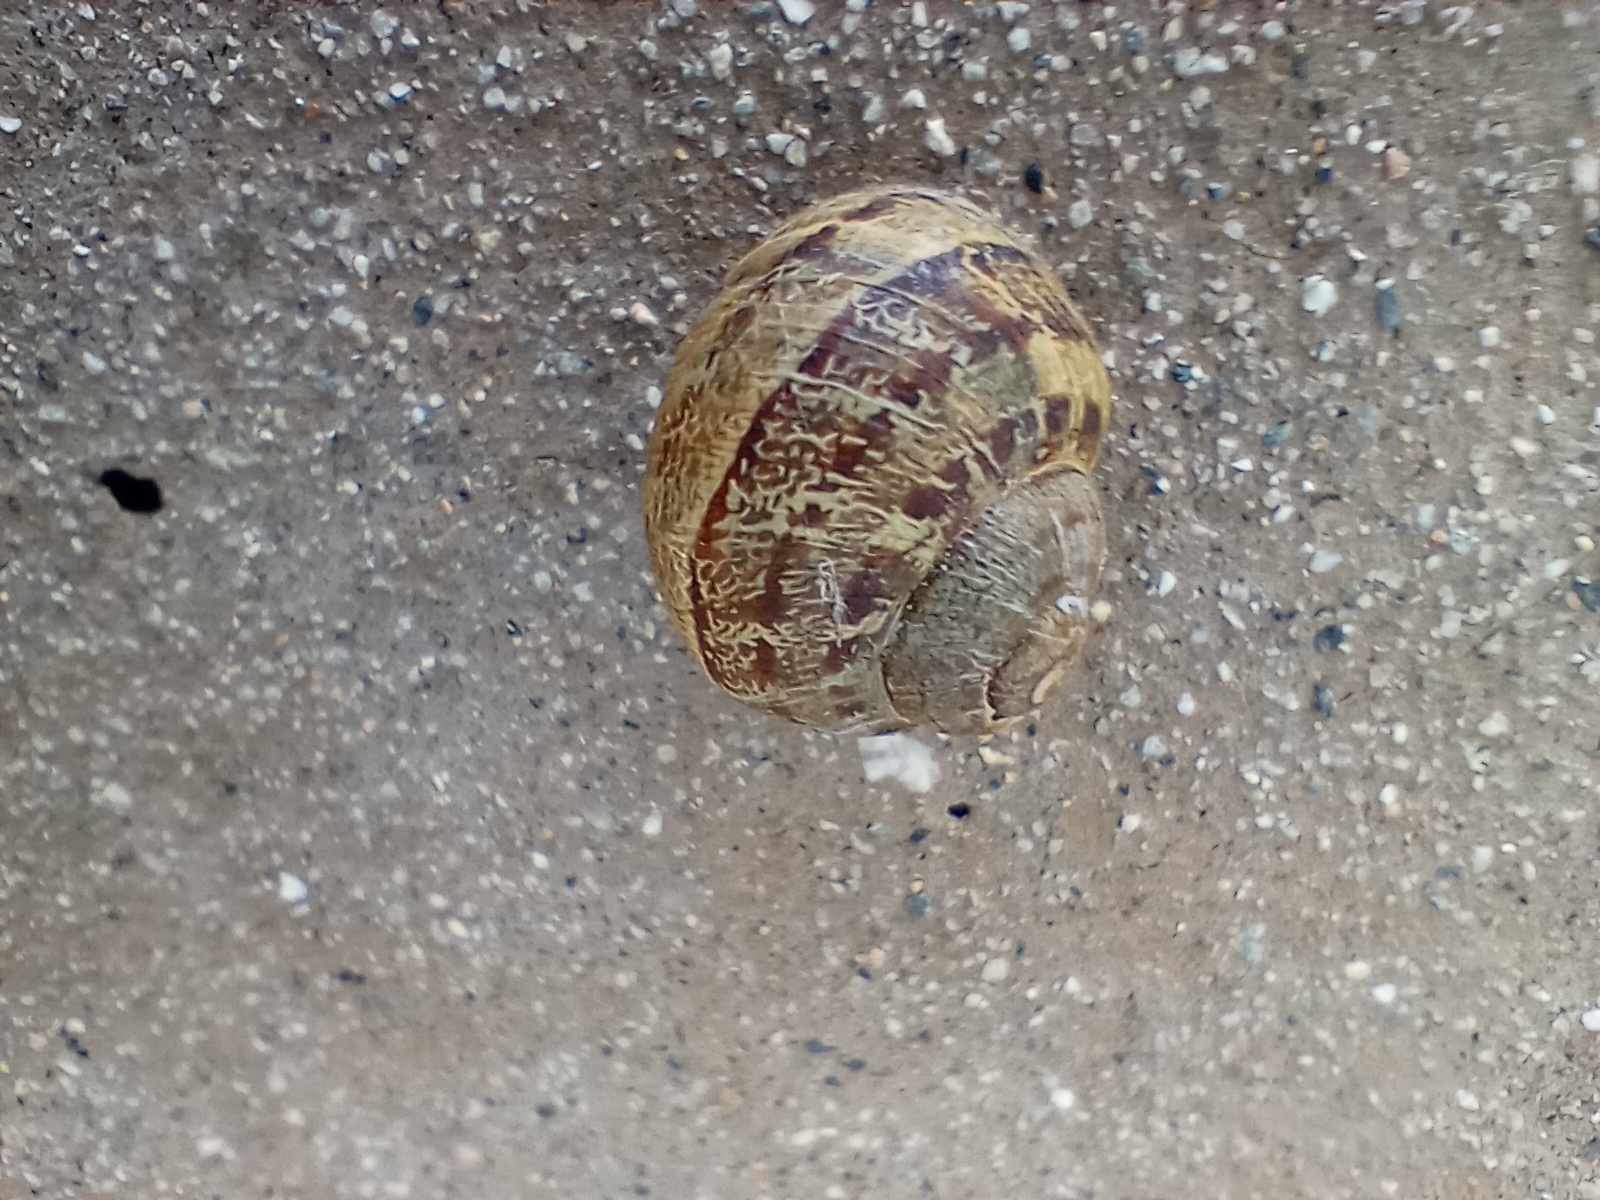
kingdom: Animalia
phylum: Mollusca
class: Gastropoda
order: Stylommatophora
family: Helicidae
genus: Cornu
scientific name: Cornu aspersum
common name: Brown garden snail
